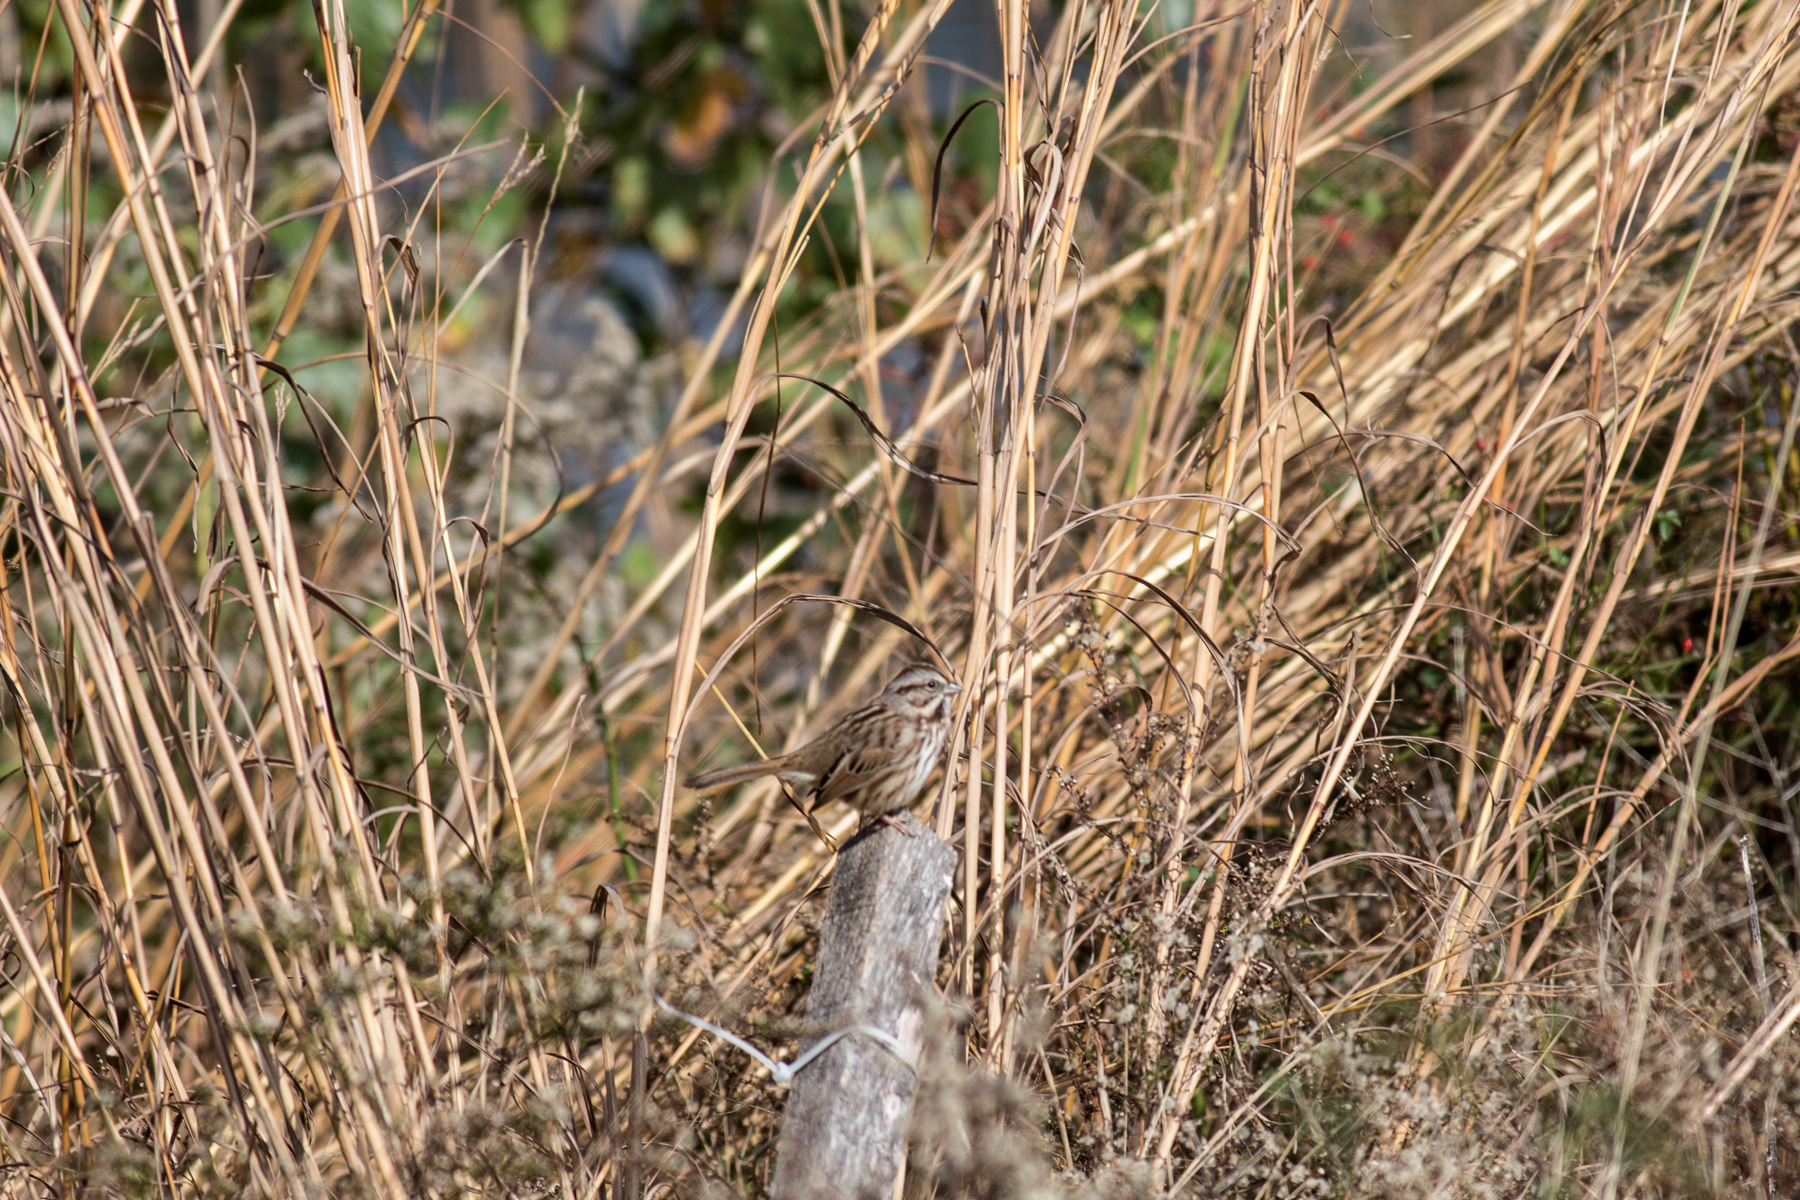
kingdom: Animalia
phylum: Chordata
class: Aves
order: Passeriformes
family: Passerellidae
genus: Melospiza
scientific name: Melospiza melodia
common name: Song sparrow
